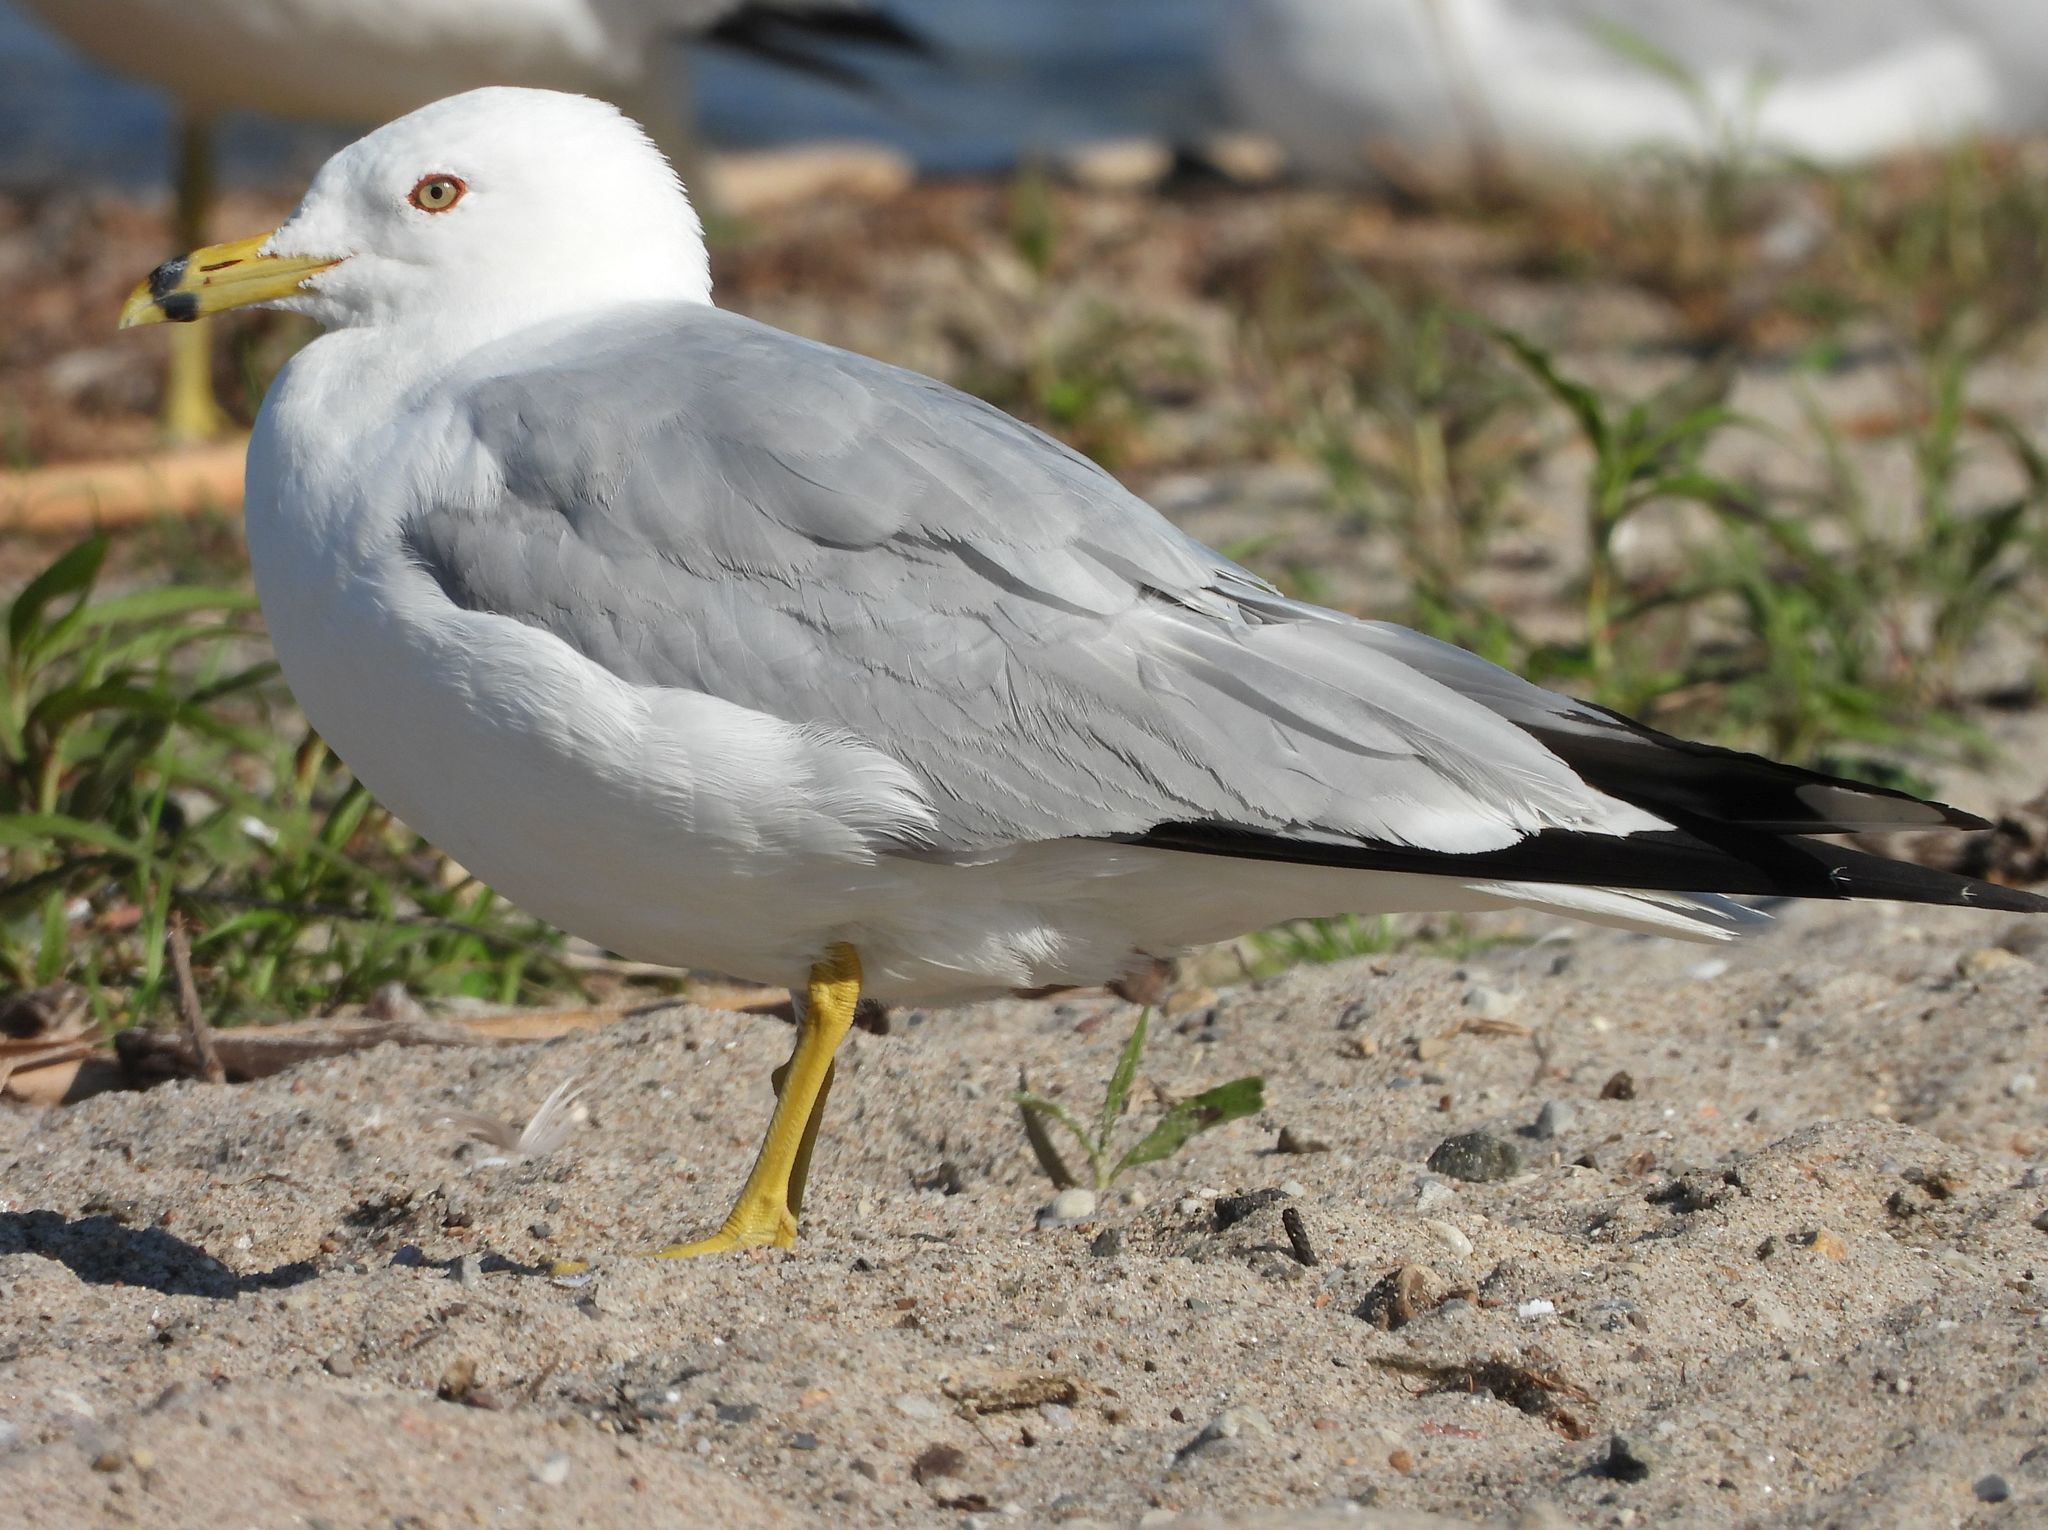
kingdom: Animalia
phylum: Chordata
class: Aves
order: Charadriiformes
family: Laridae
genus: Larus
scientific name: Larus delawarensis
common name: Ring-billed gull
